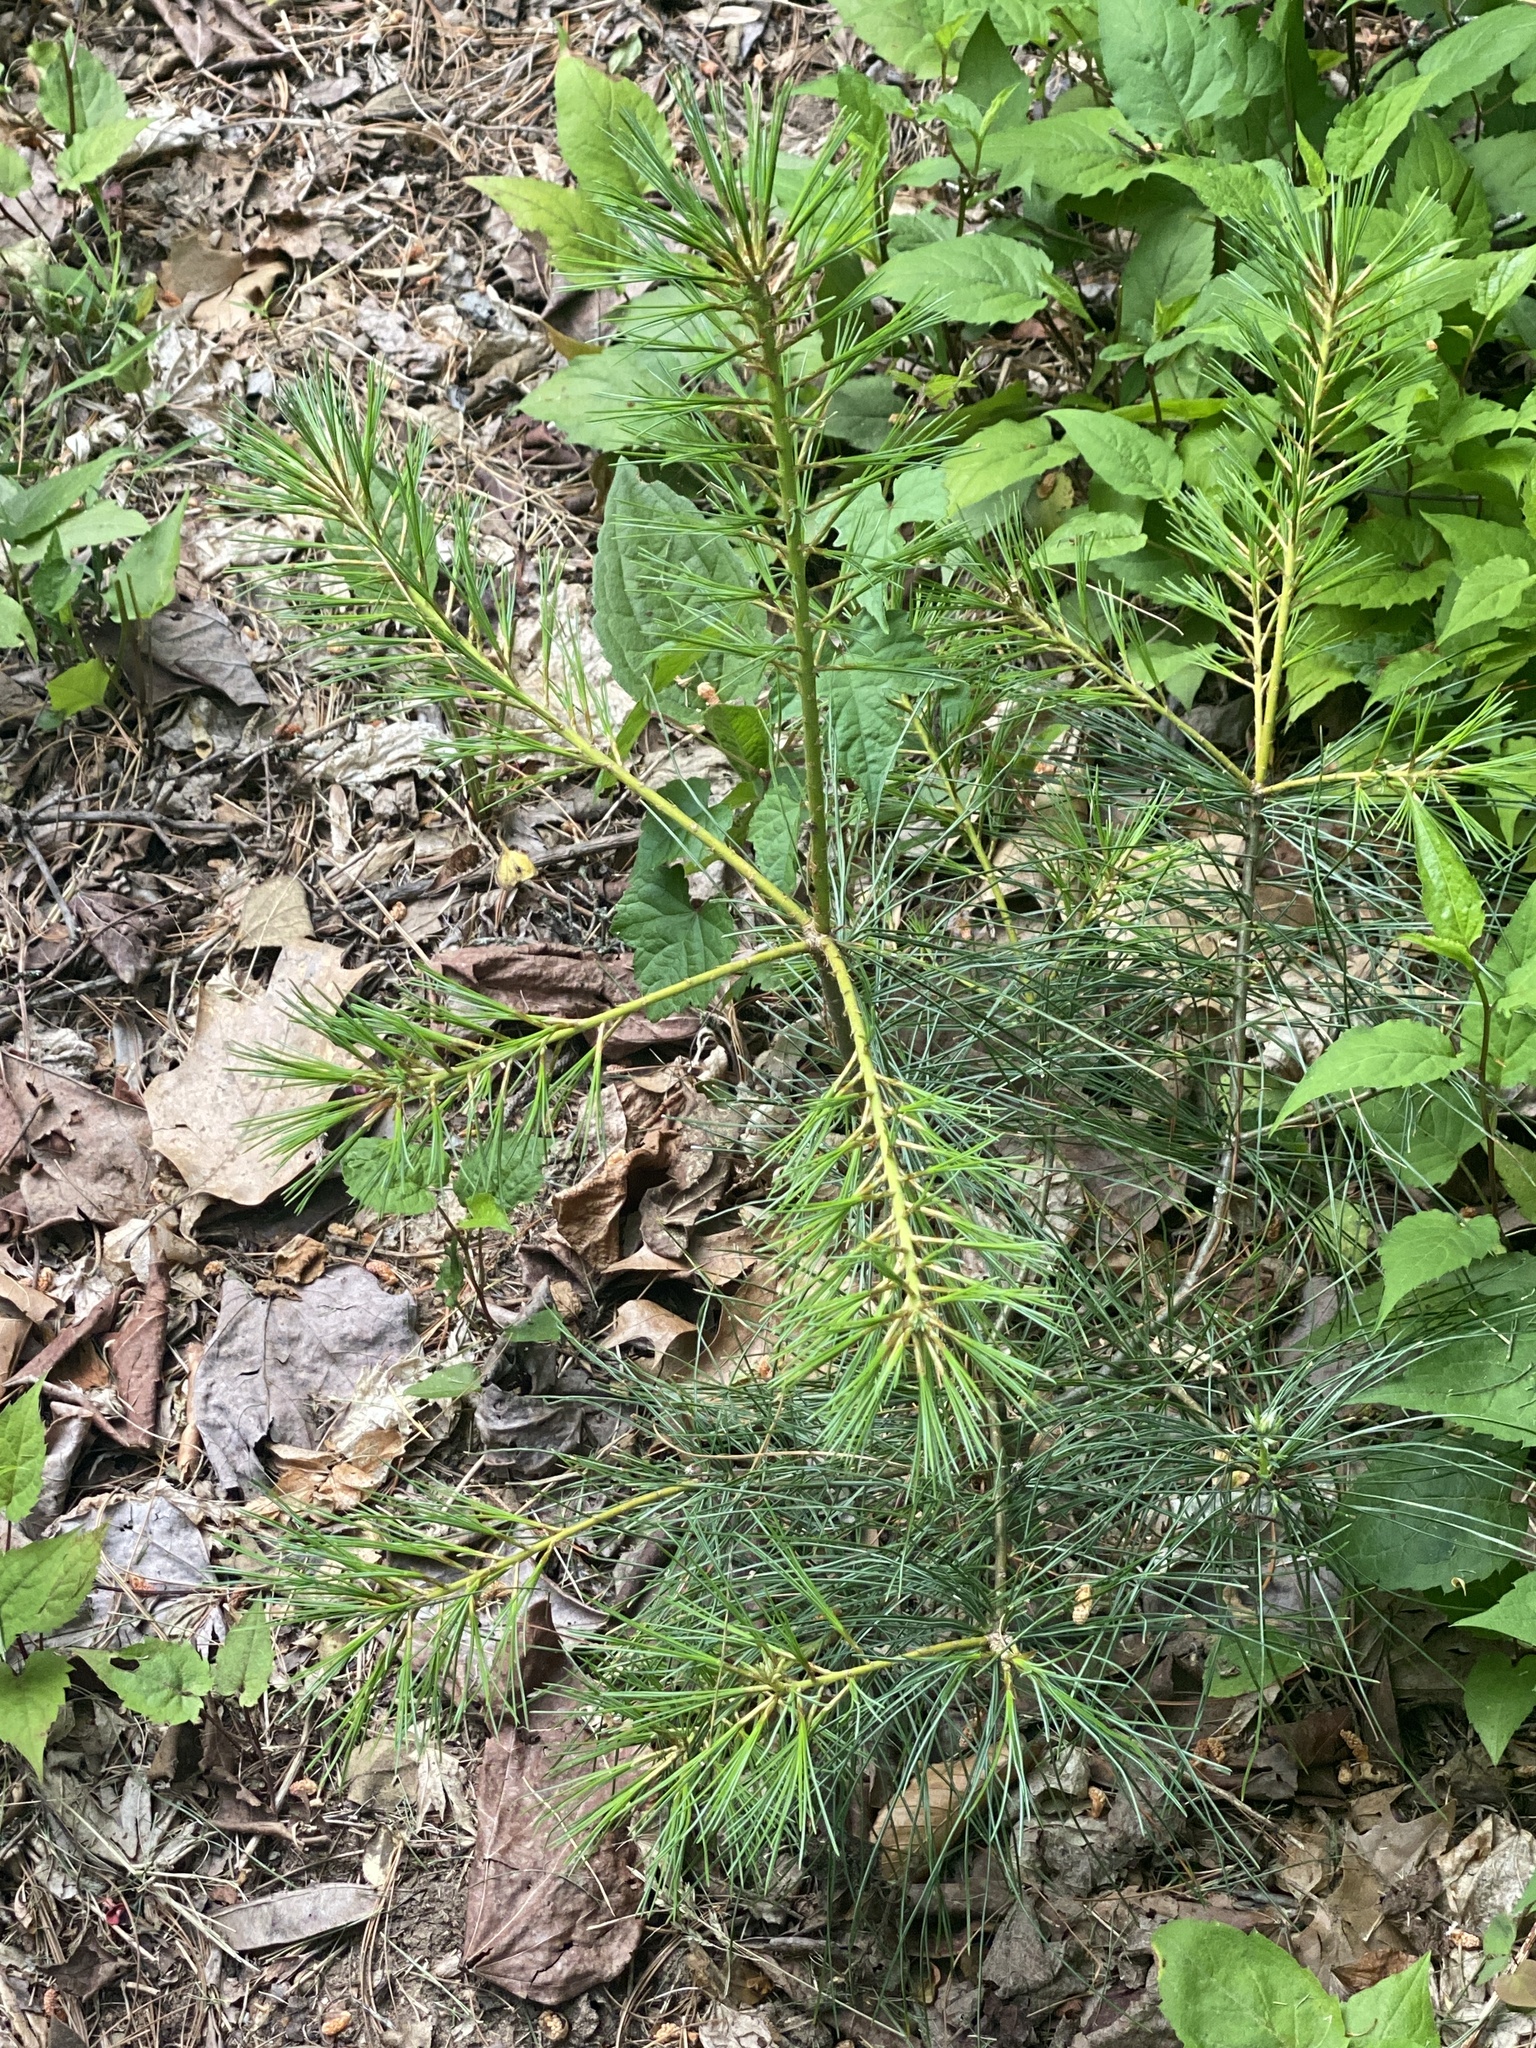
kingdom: Plantae
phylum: Tracheophyta
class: Pinopsida
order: Pinales
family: Pinaceae
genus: Pinus
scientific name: Pinus strobus
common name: Weymouth pine
